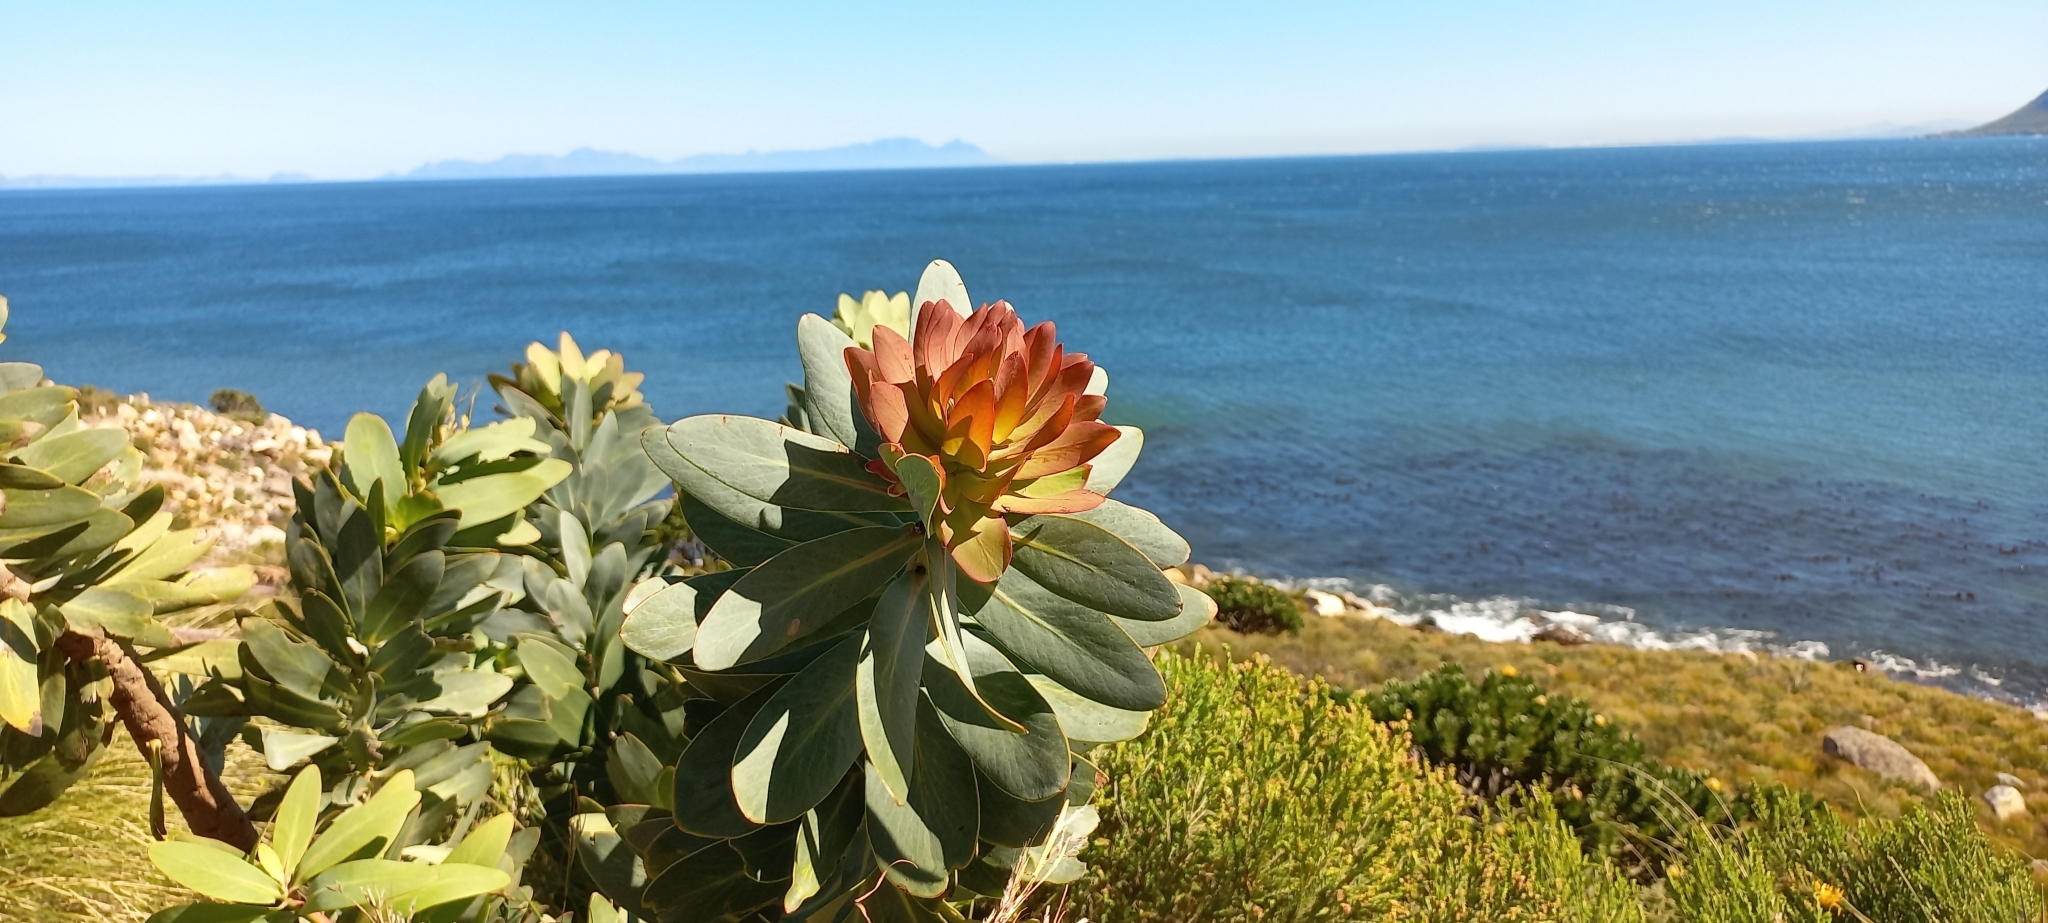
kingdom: Plantae
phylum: Tracheophyta
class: Magnoliopsida
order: Proteales
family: Proteaceae
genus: Protea
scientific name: Protea nitida
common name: Tree protea
